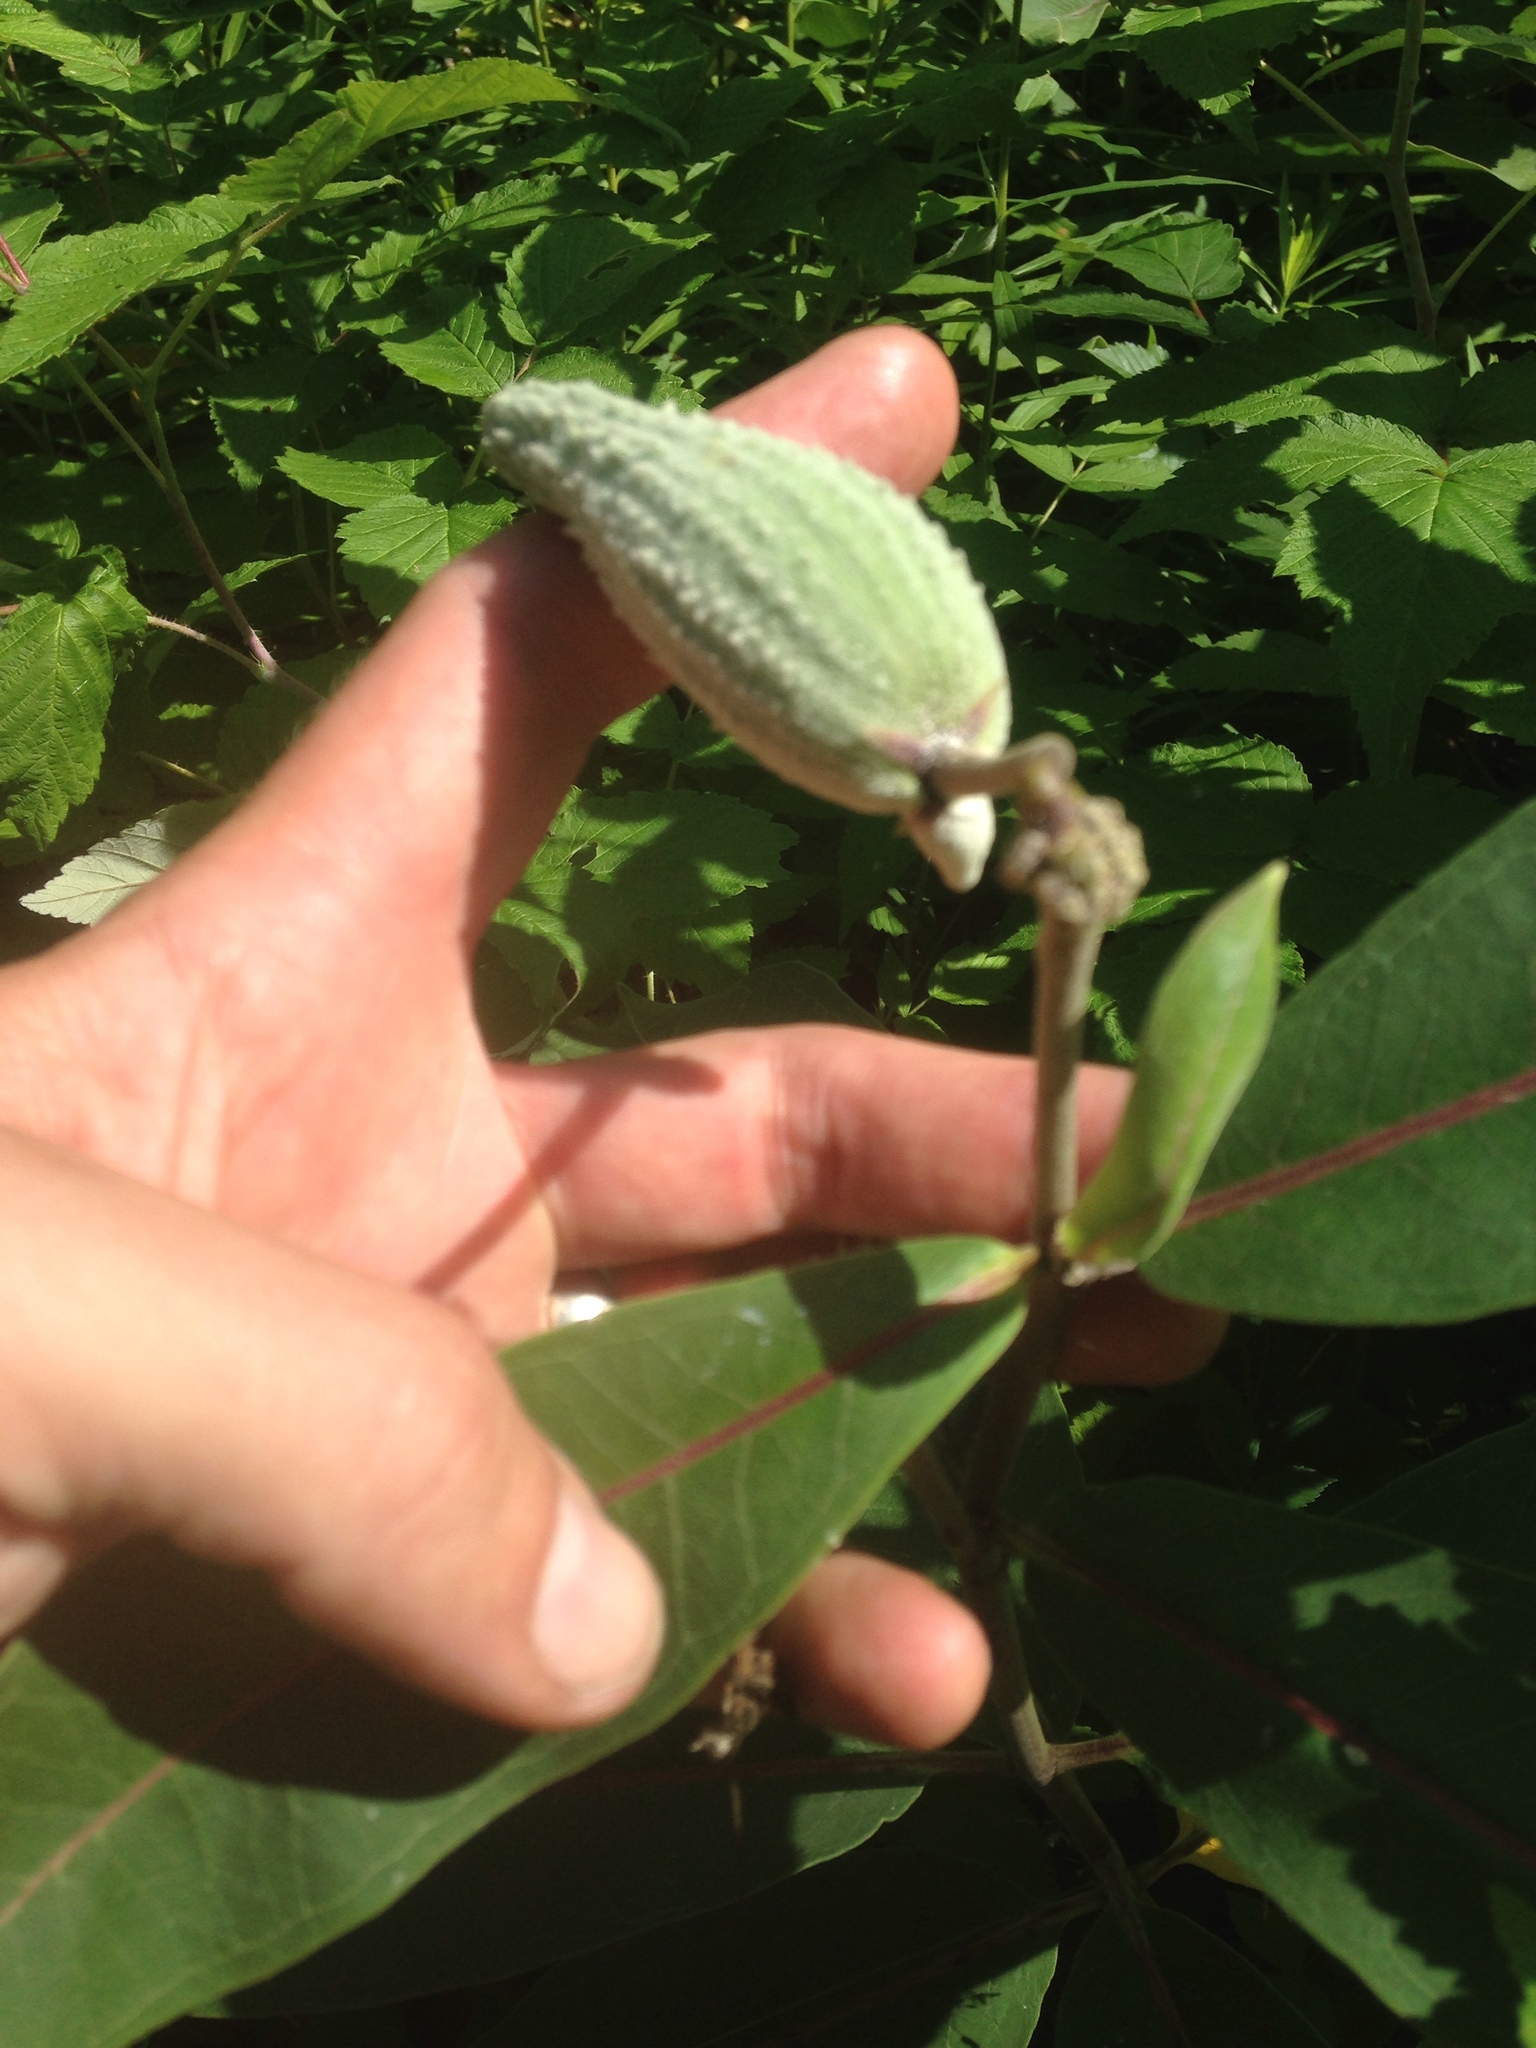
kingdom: Plantae
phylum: Tracheophyta
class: Magnoliopsida
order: Gentianales
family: Apocynaceae
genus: Asclepias
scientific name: Asclepias syriaca
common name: Common milkweed
